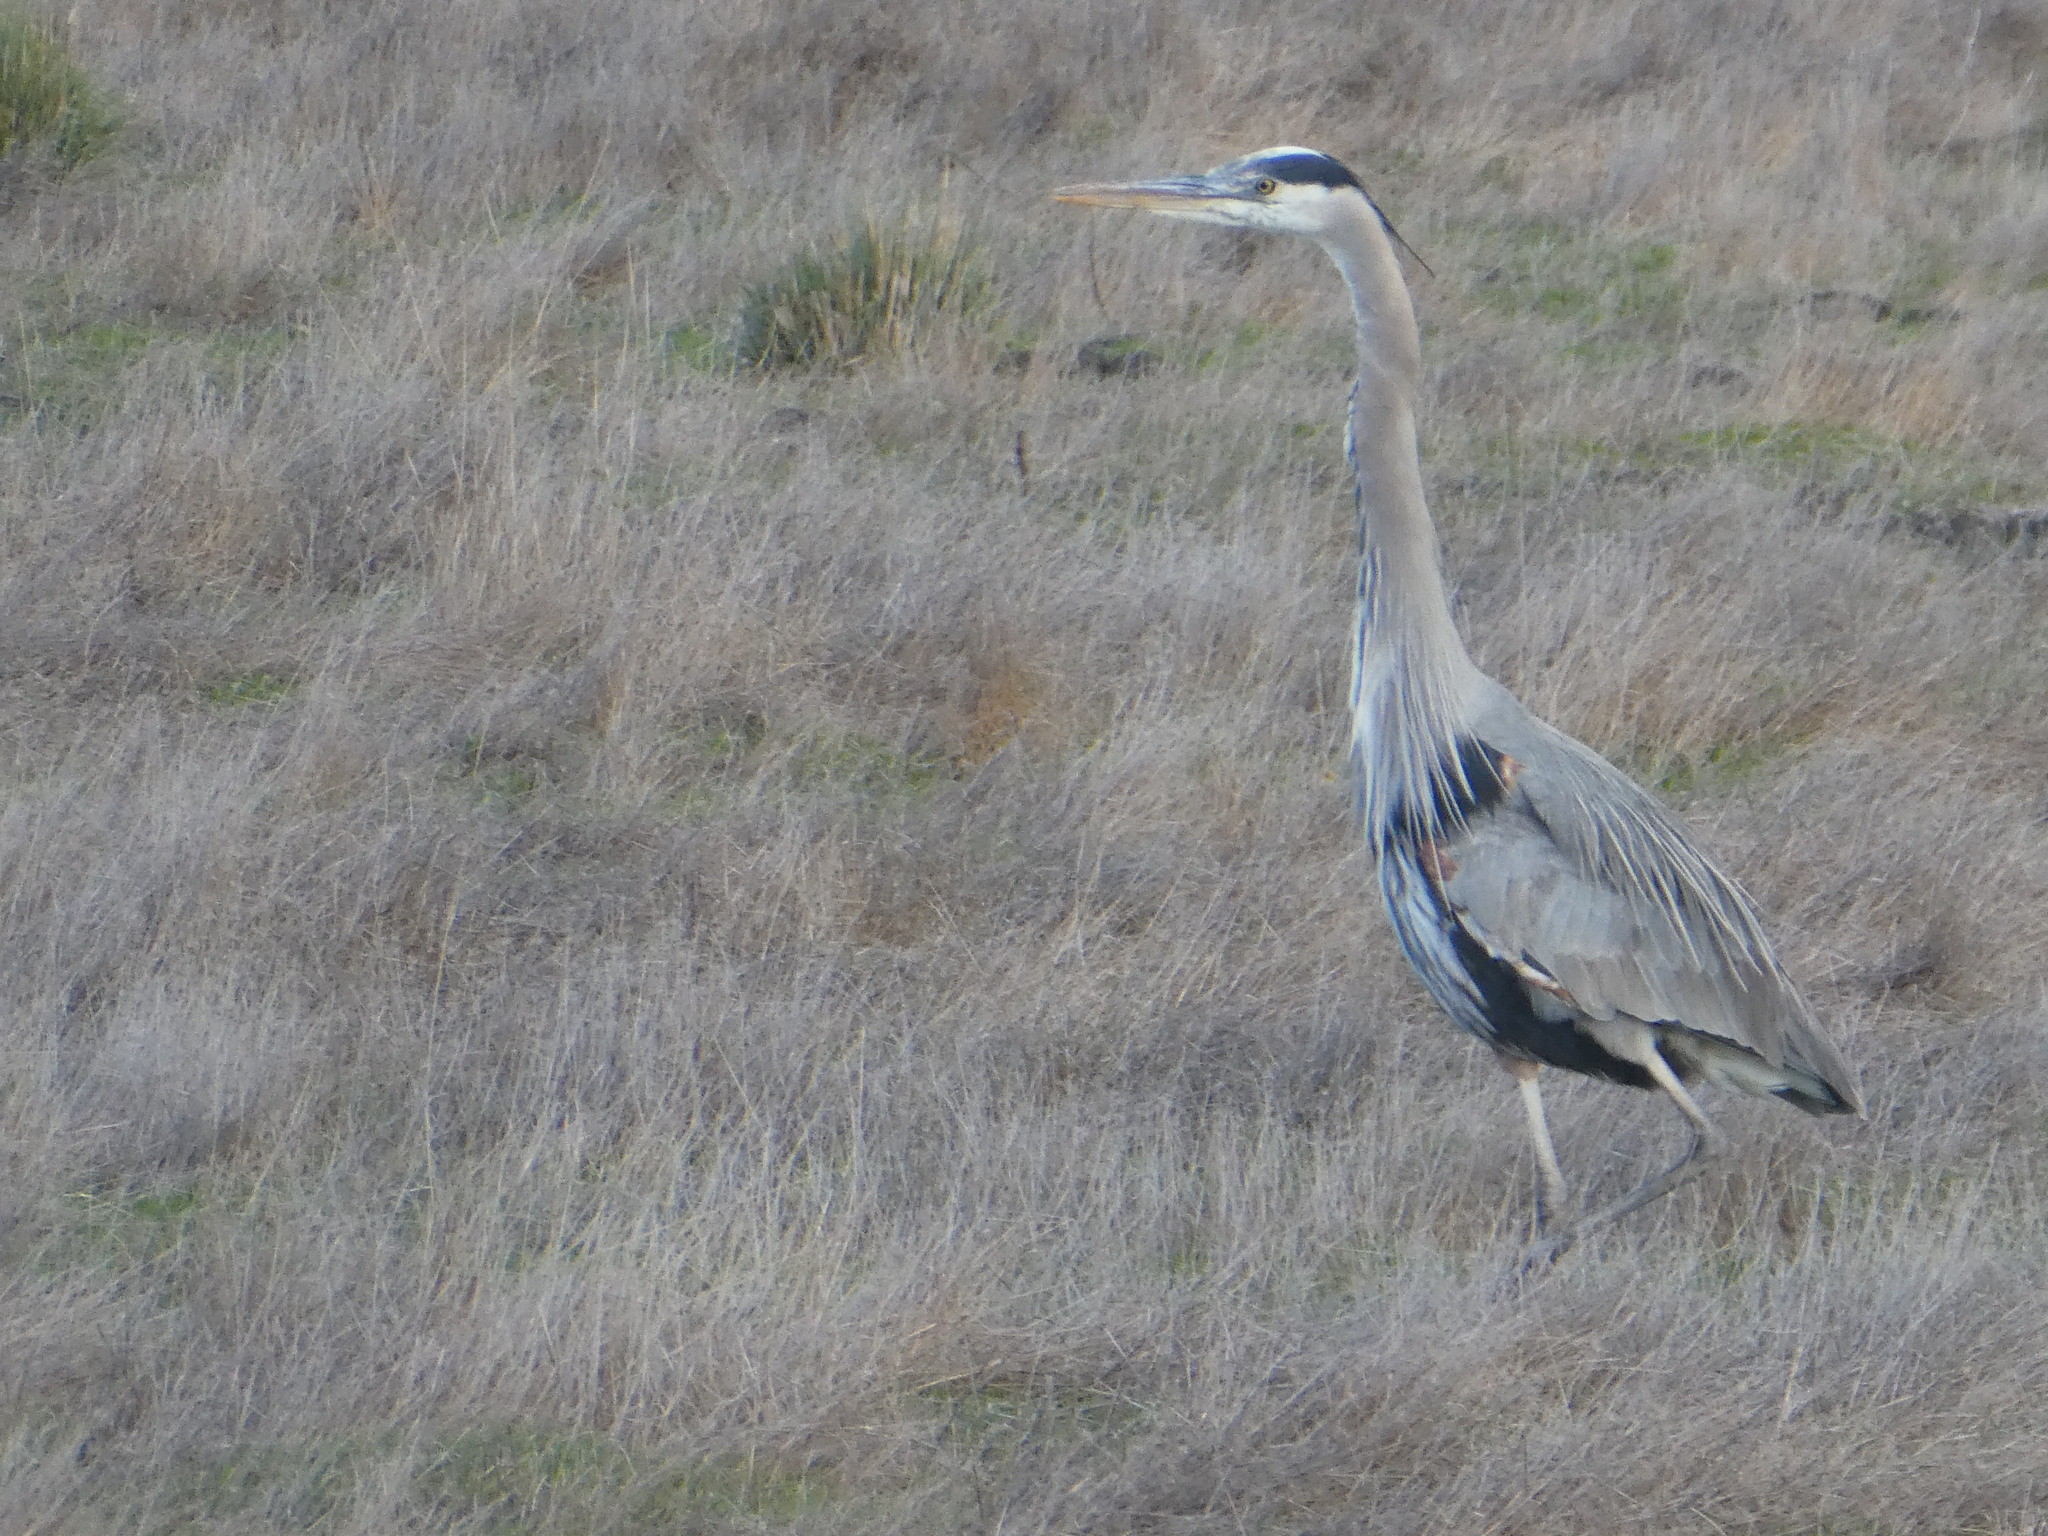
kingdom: Animalia
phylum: Chordata
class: Aves
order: Pelecaniformes
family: Ardeidae
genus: Ardea
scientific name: Ardea herodias
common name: Great blue heron
